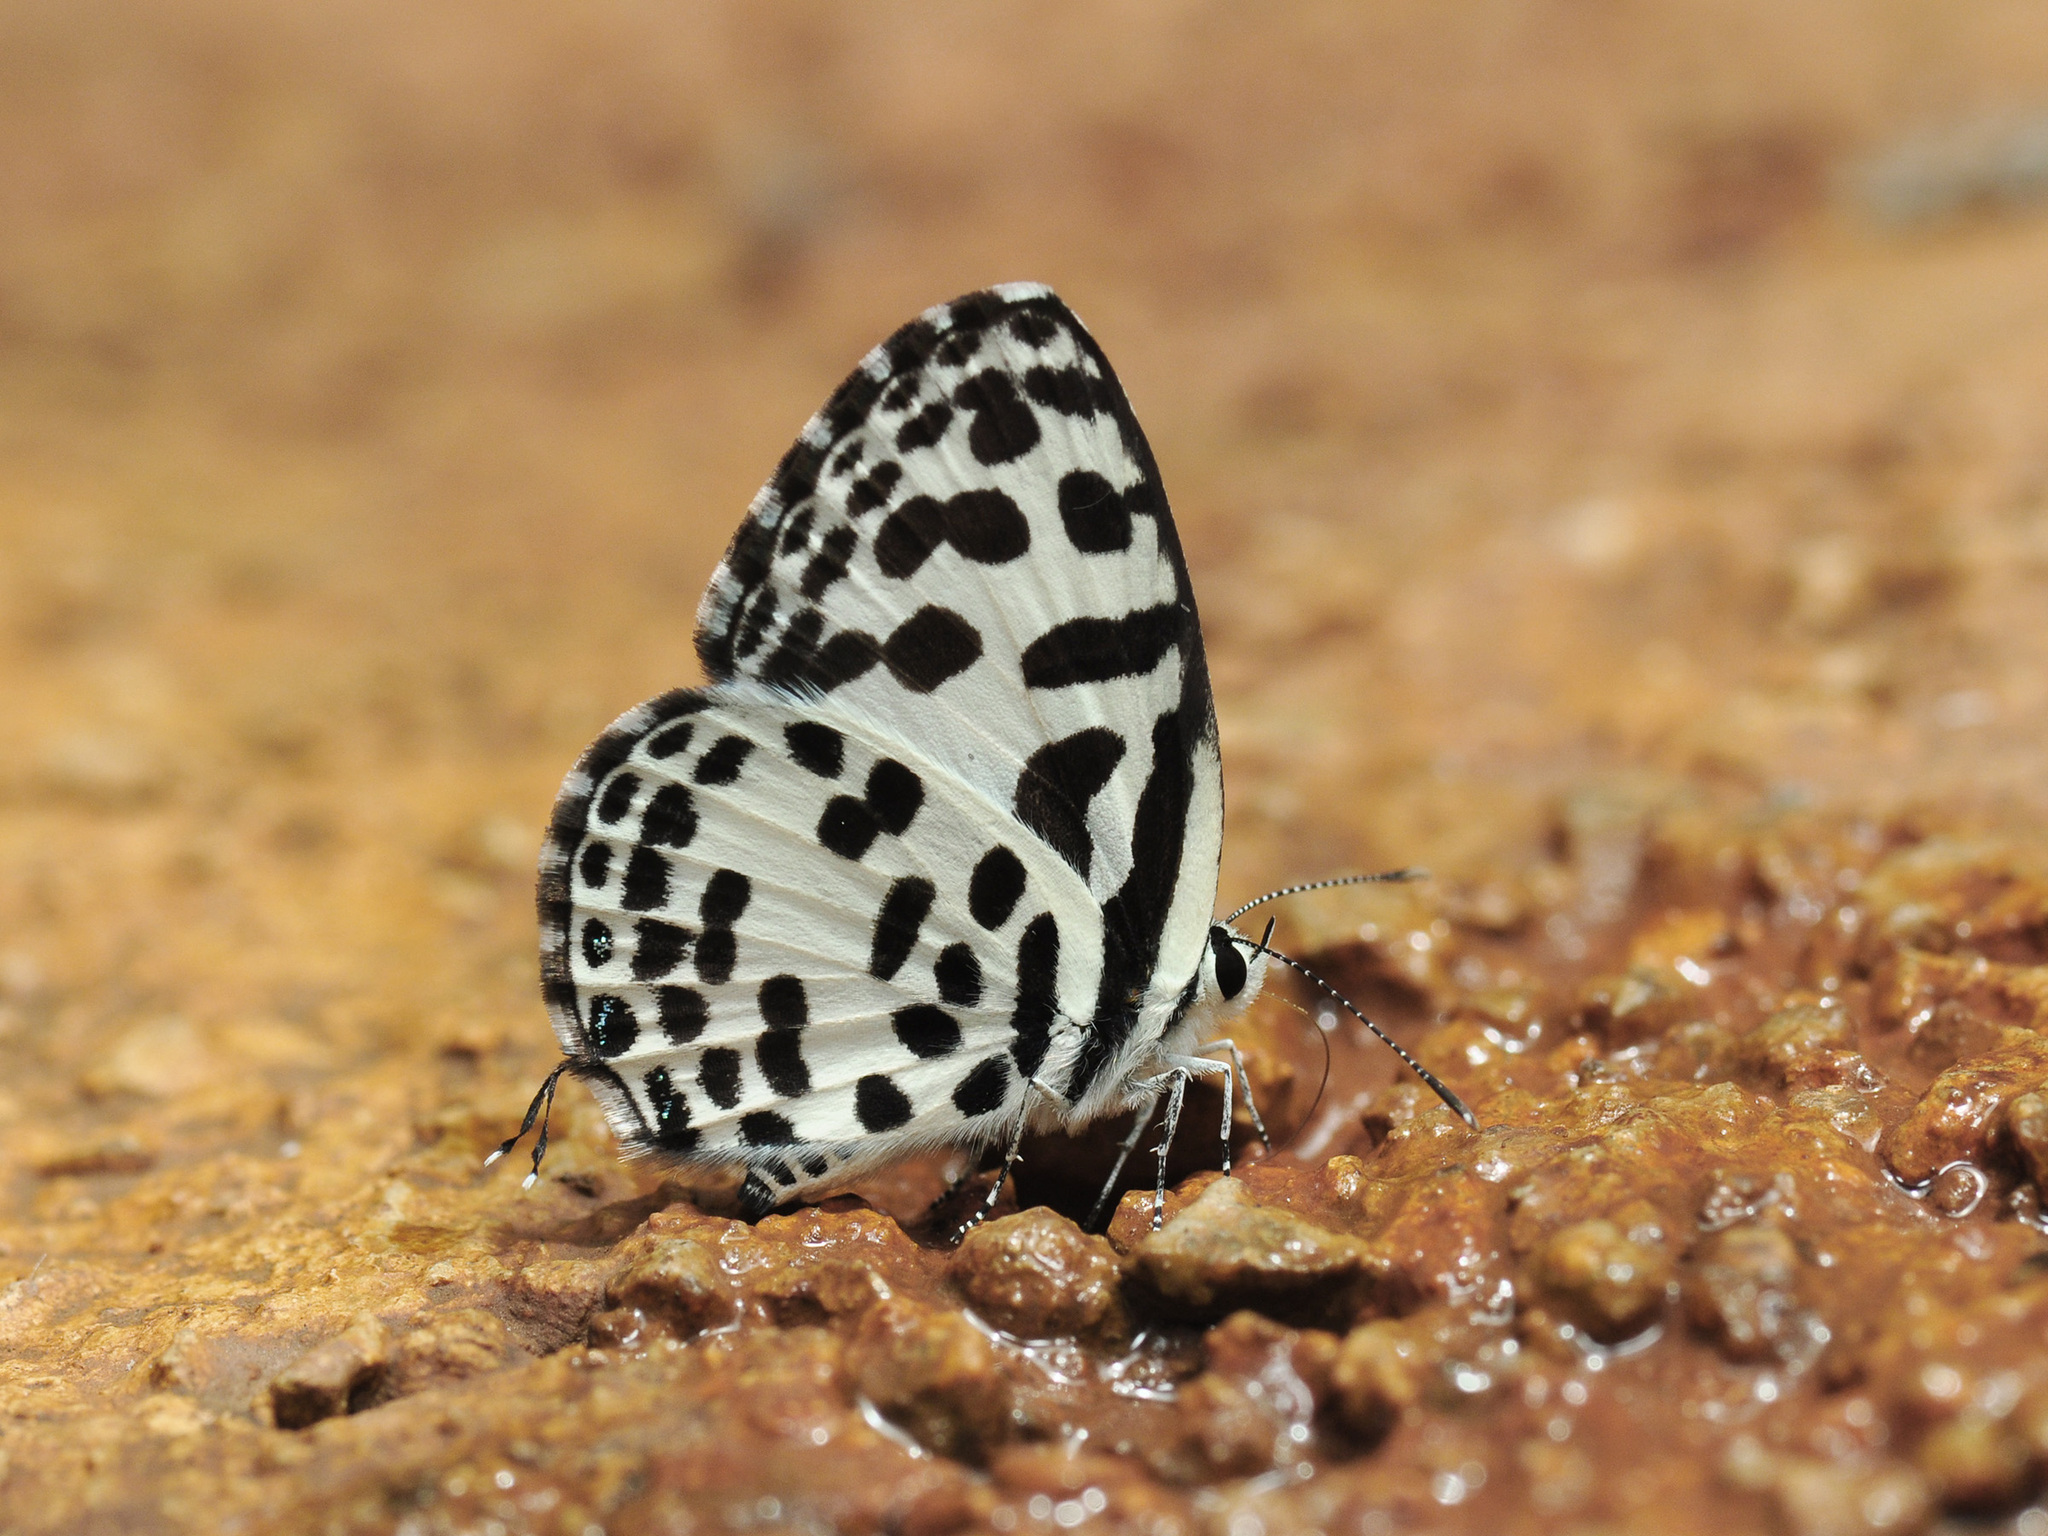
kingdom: Animalia
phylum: Arthropoda
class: Insecta
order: Lepidoptera
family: Lycaenidae
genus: Castalius
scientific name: Castalius rosimon
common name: Common pierrot
